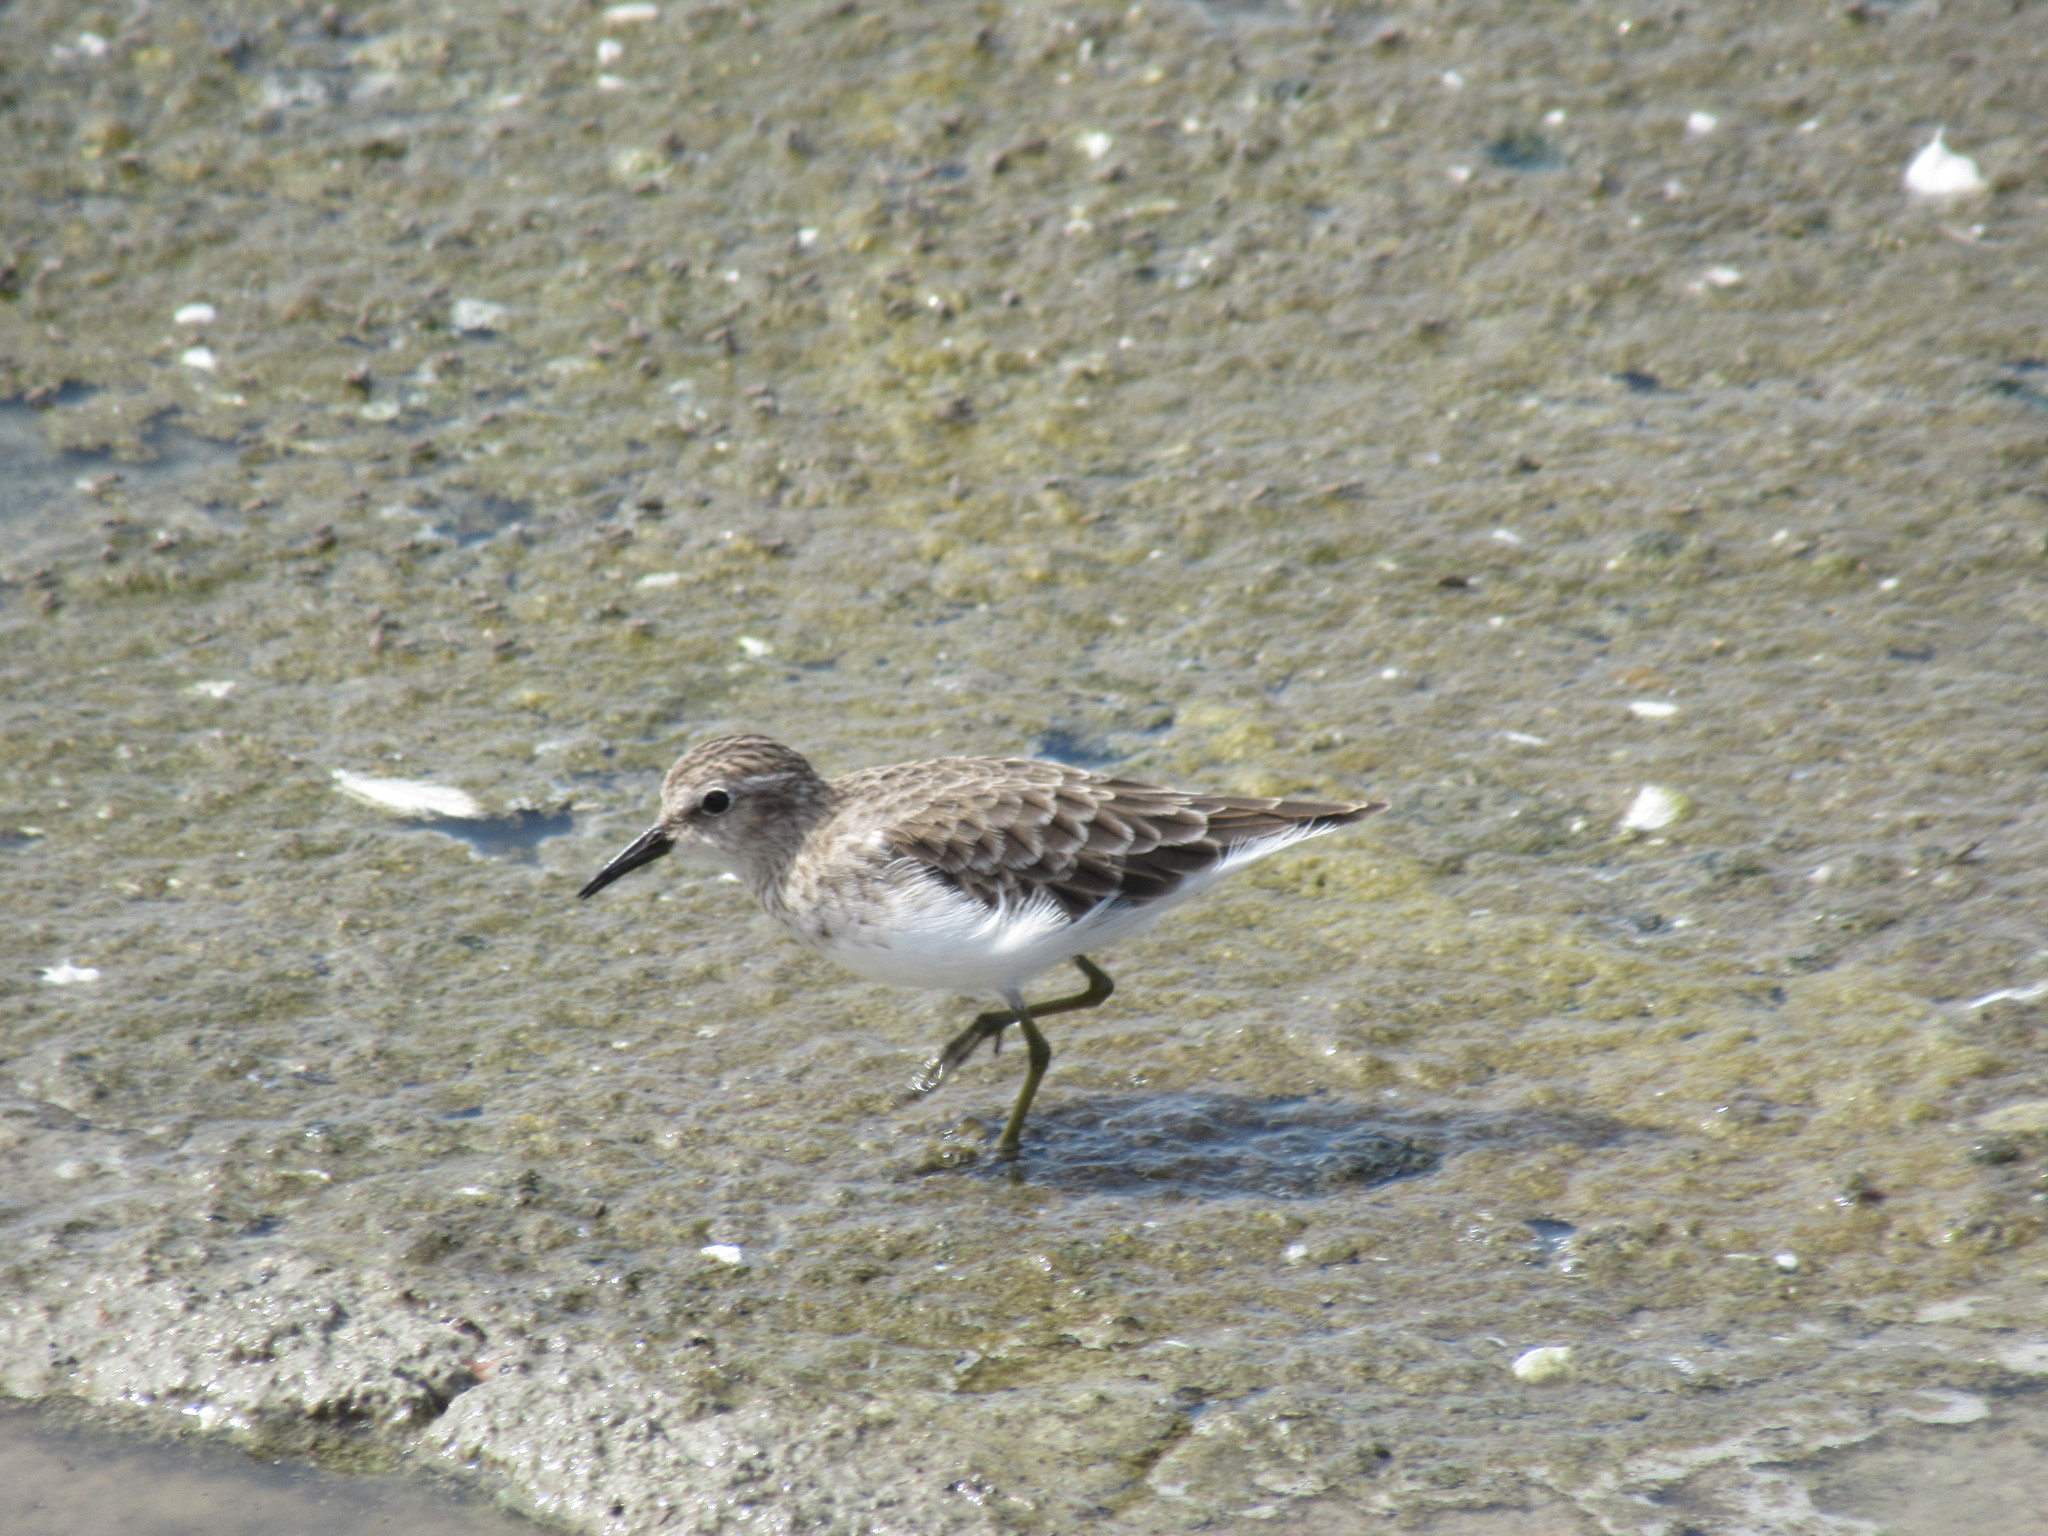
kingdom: Animalia
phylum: Chordata
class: Aves
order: Charadriiformes
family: Scolopacidae
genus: Calidris
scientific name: Calidris minutilla
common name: Least sandpiper
